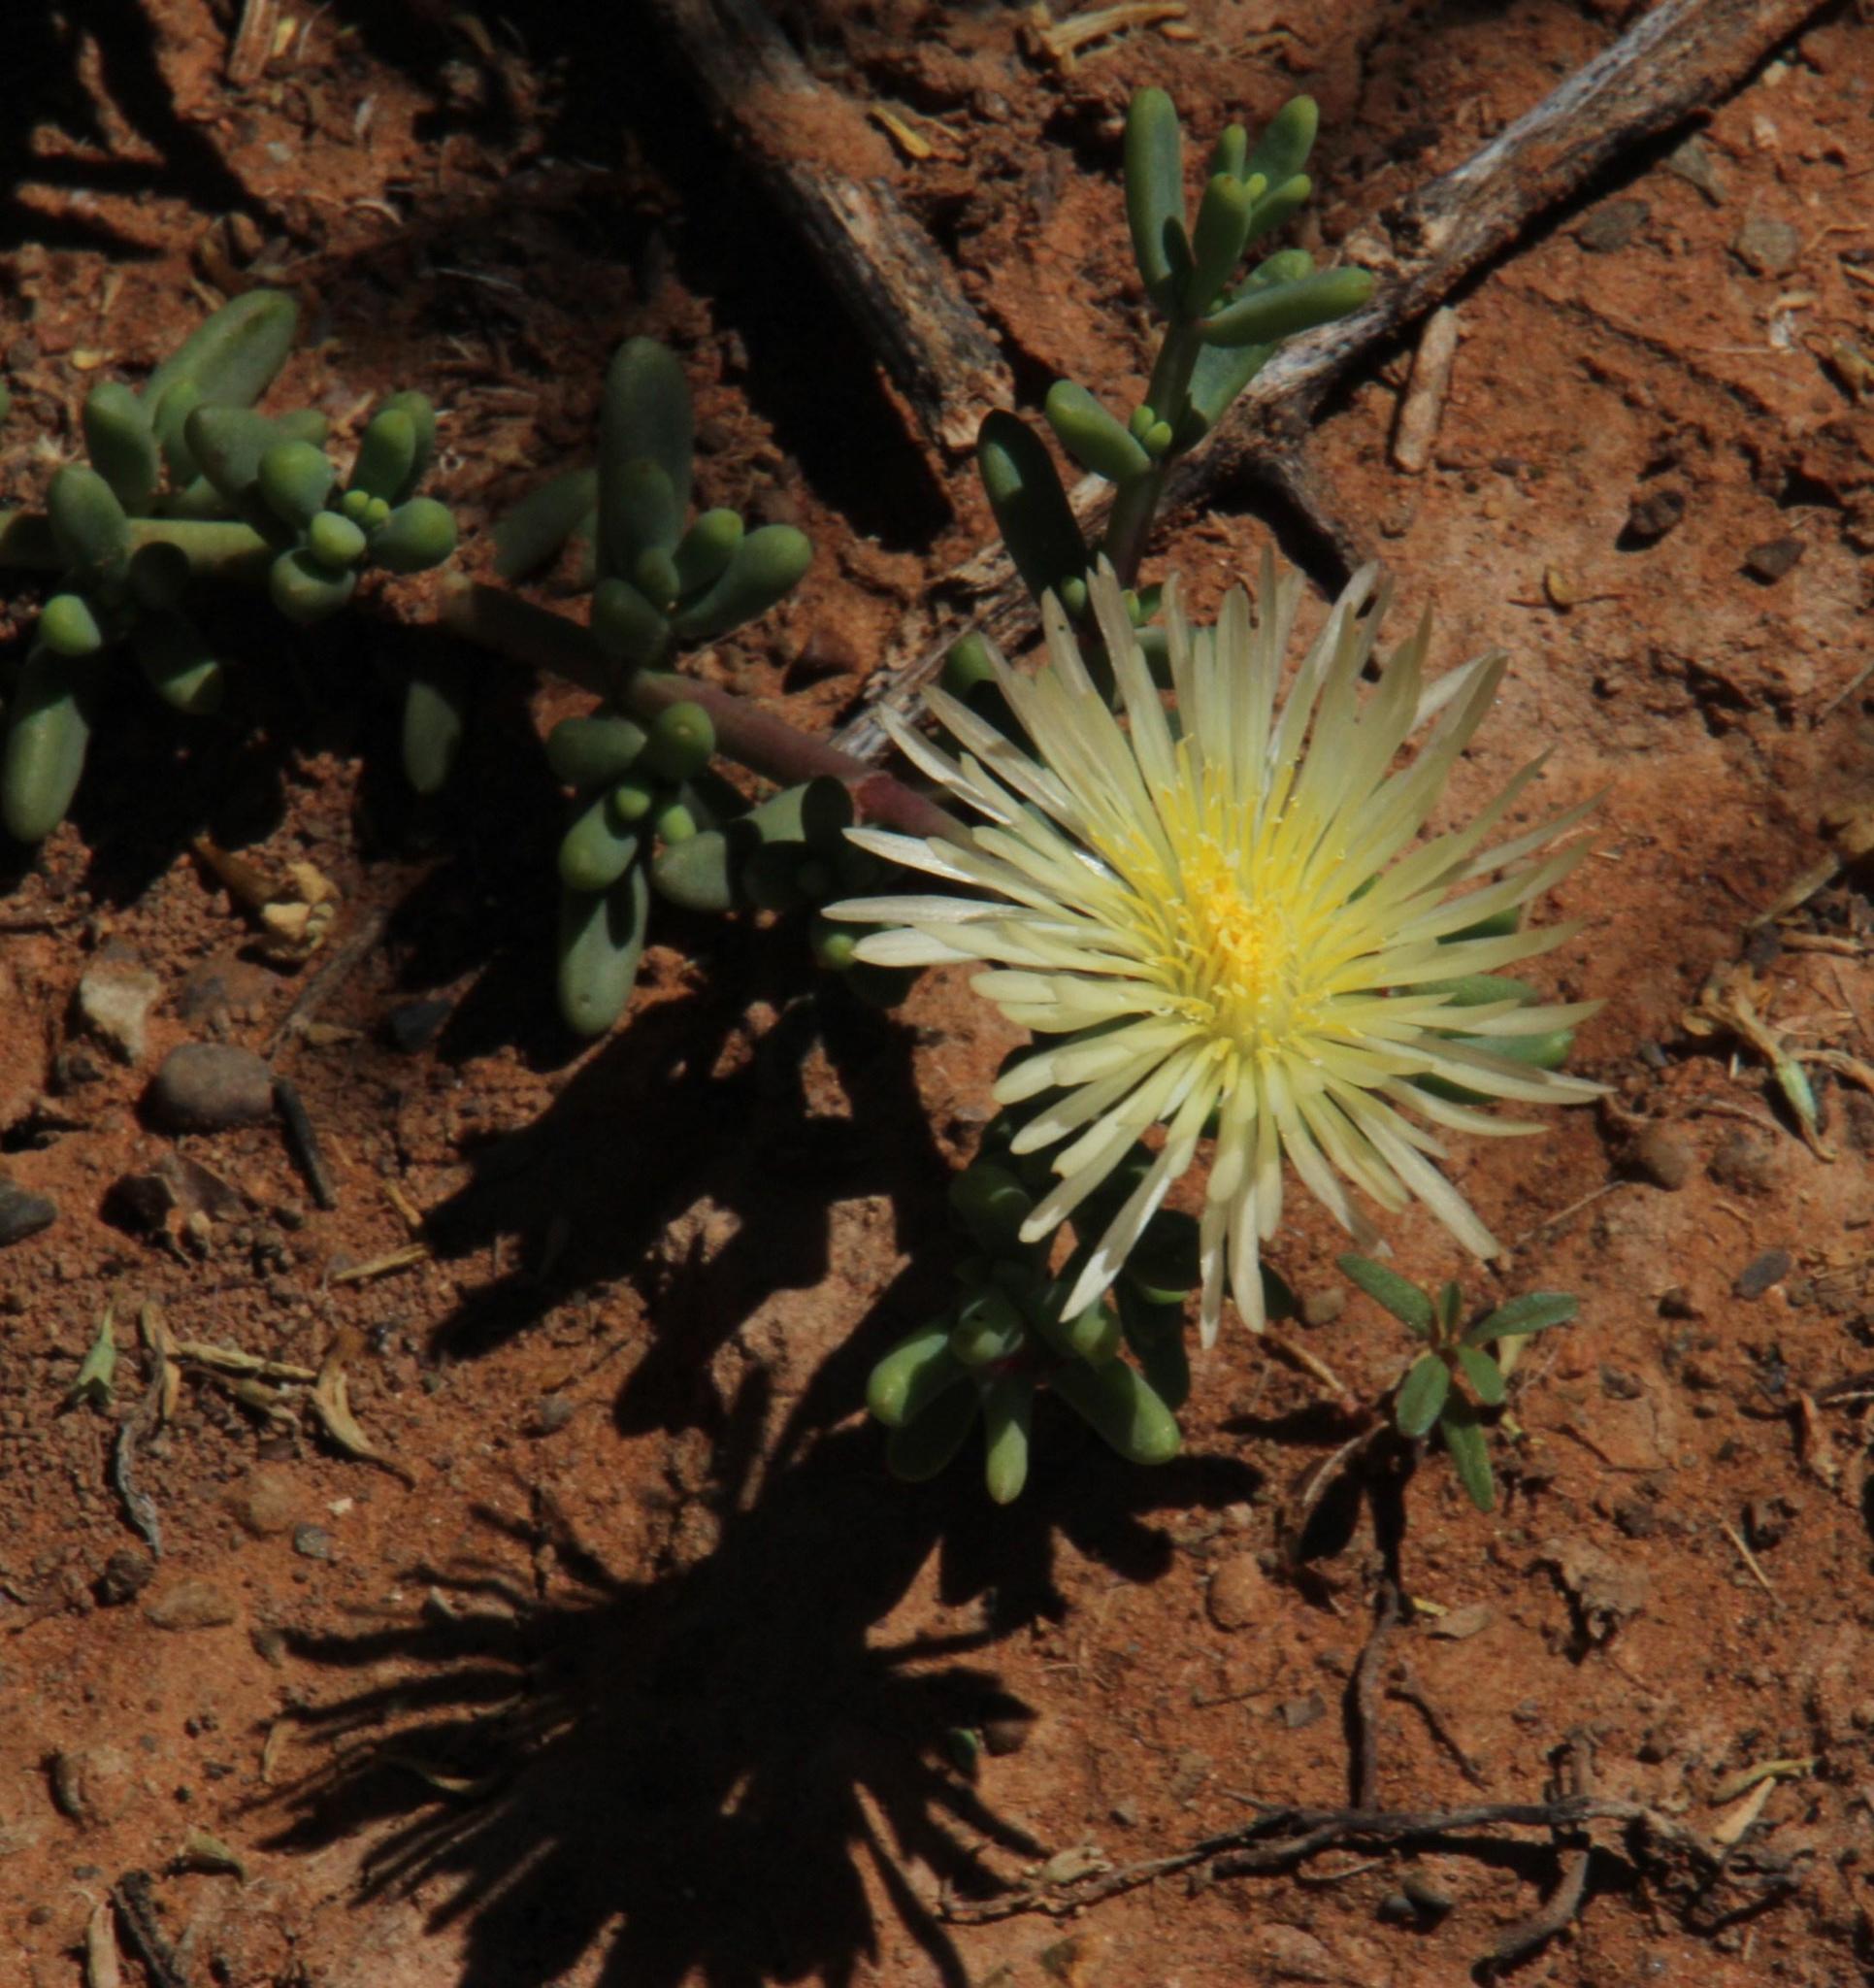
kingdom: Plantae
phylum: Tracheophyta
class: Magnoliopsida
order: Caryophyllales
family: Aizoaceae
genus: Mesembryanthemum
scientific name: Mesembryanthemum splendens
